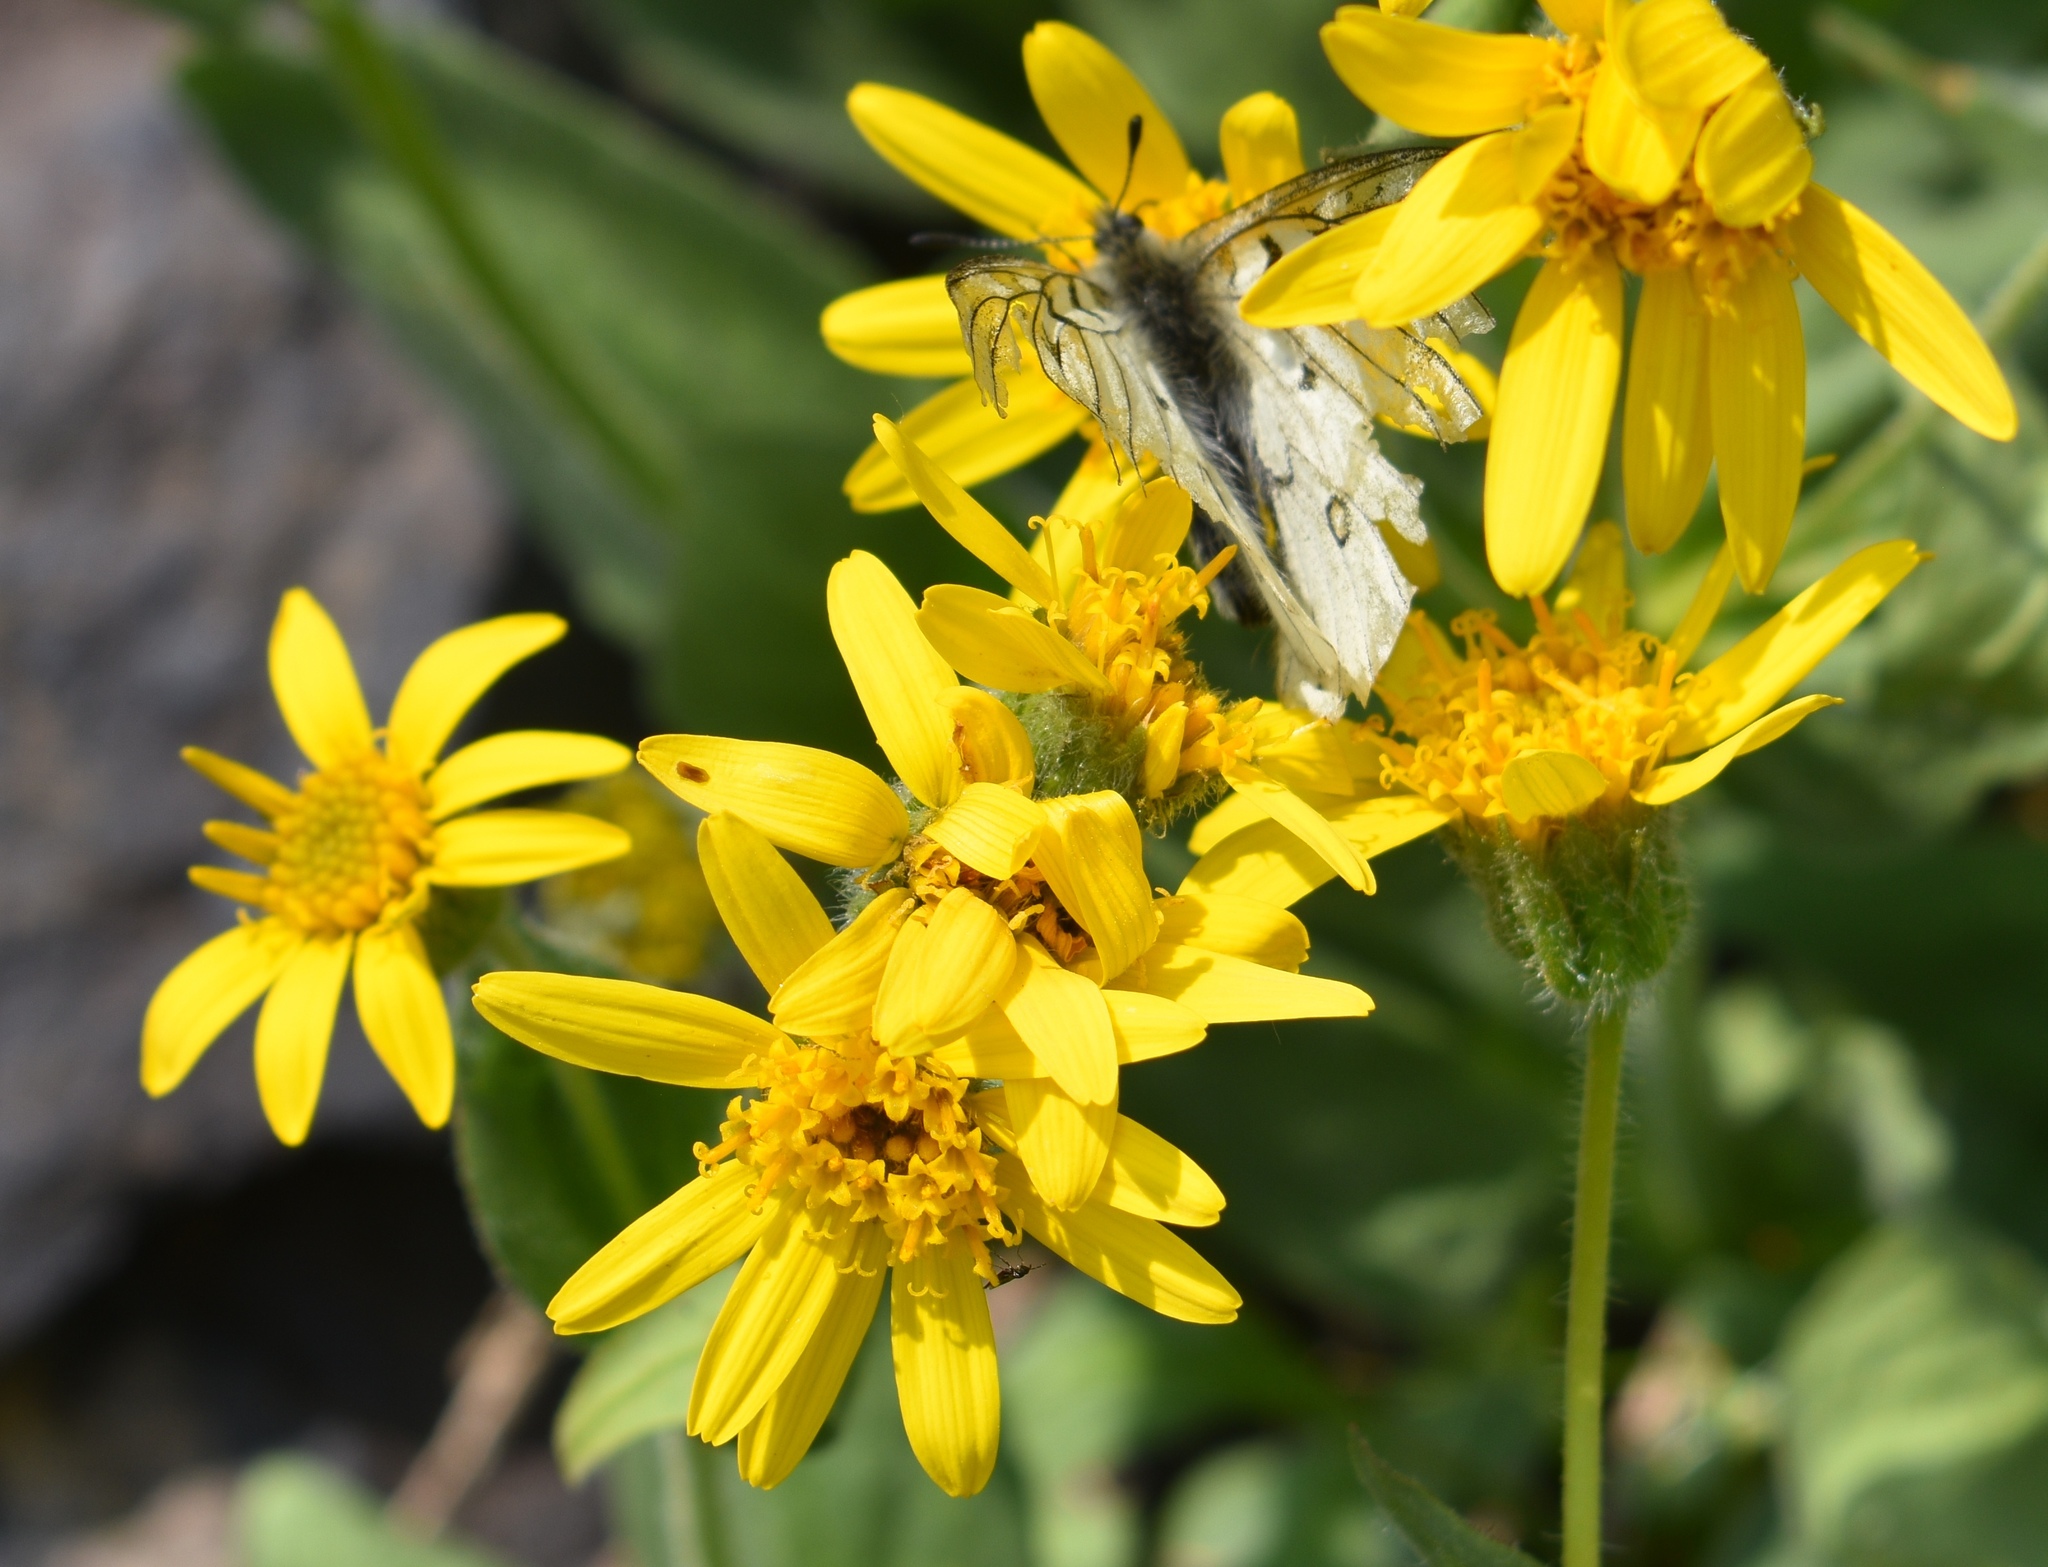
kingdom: Animalia
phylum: Arthropoda
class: Insecta
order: Lepidoptera
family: Papilionidae
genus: Parnassius
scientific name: Parnassius smintheus
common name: Mountain parnassian
